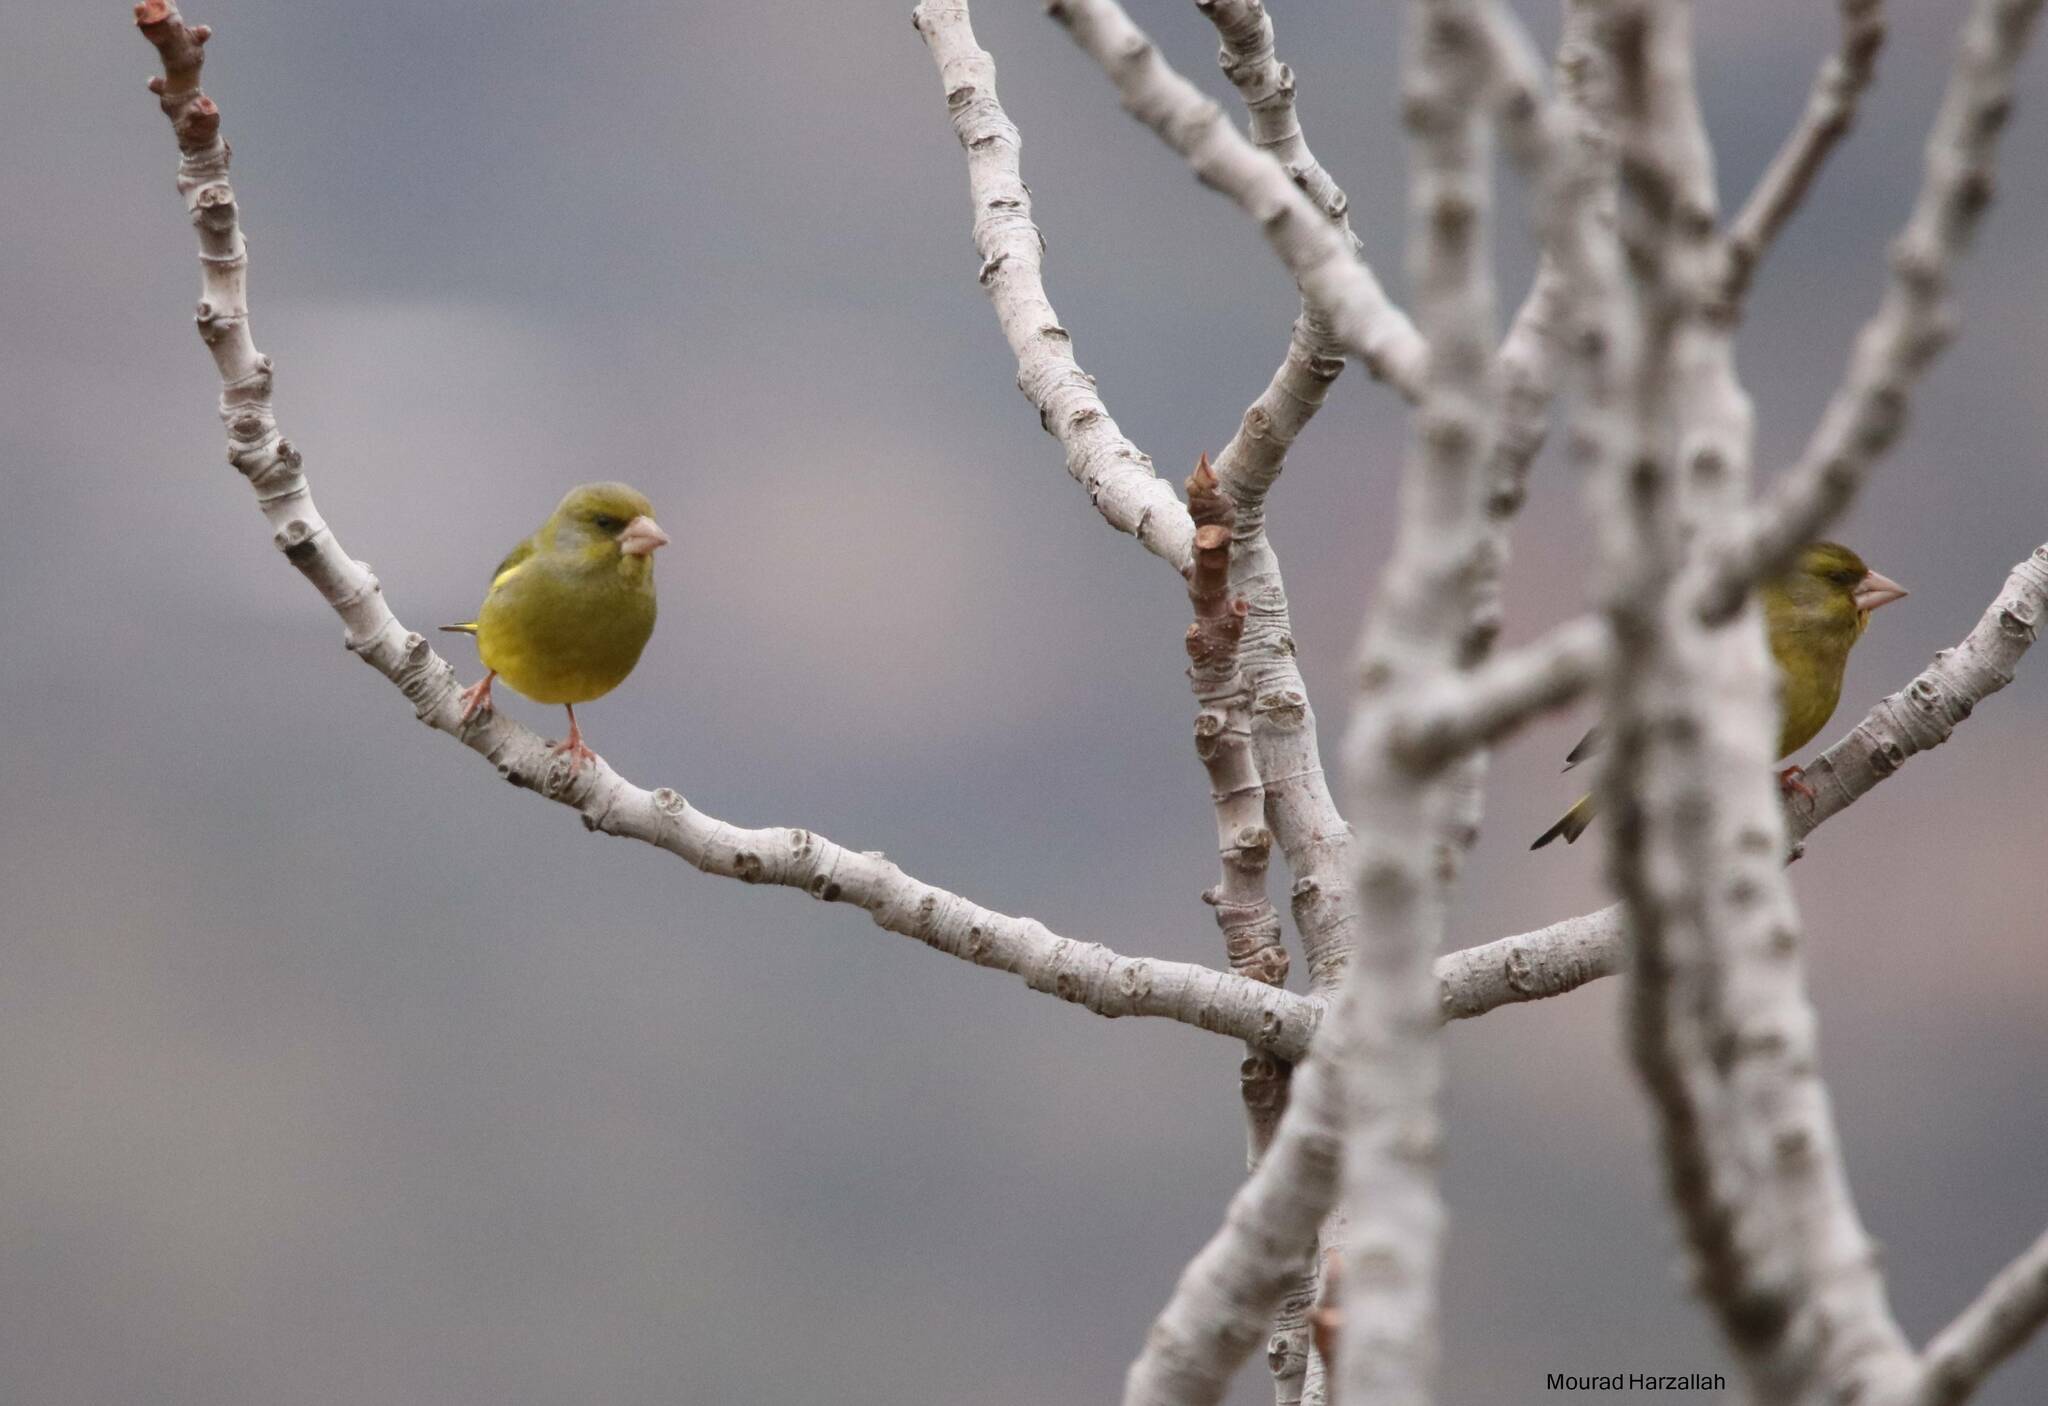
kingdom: Plantae
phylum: Tracheophyta
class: Liliopsida
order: Poales
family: Poaceae
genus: Chloris
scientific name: Chloris chloris
